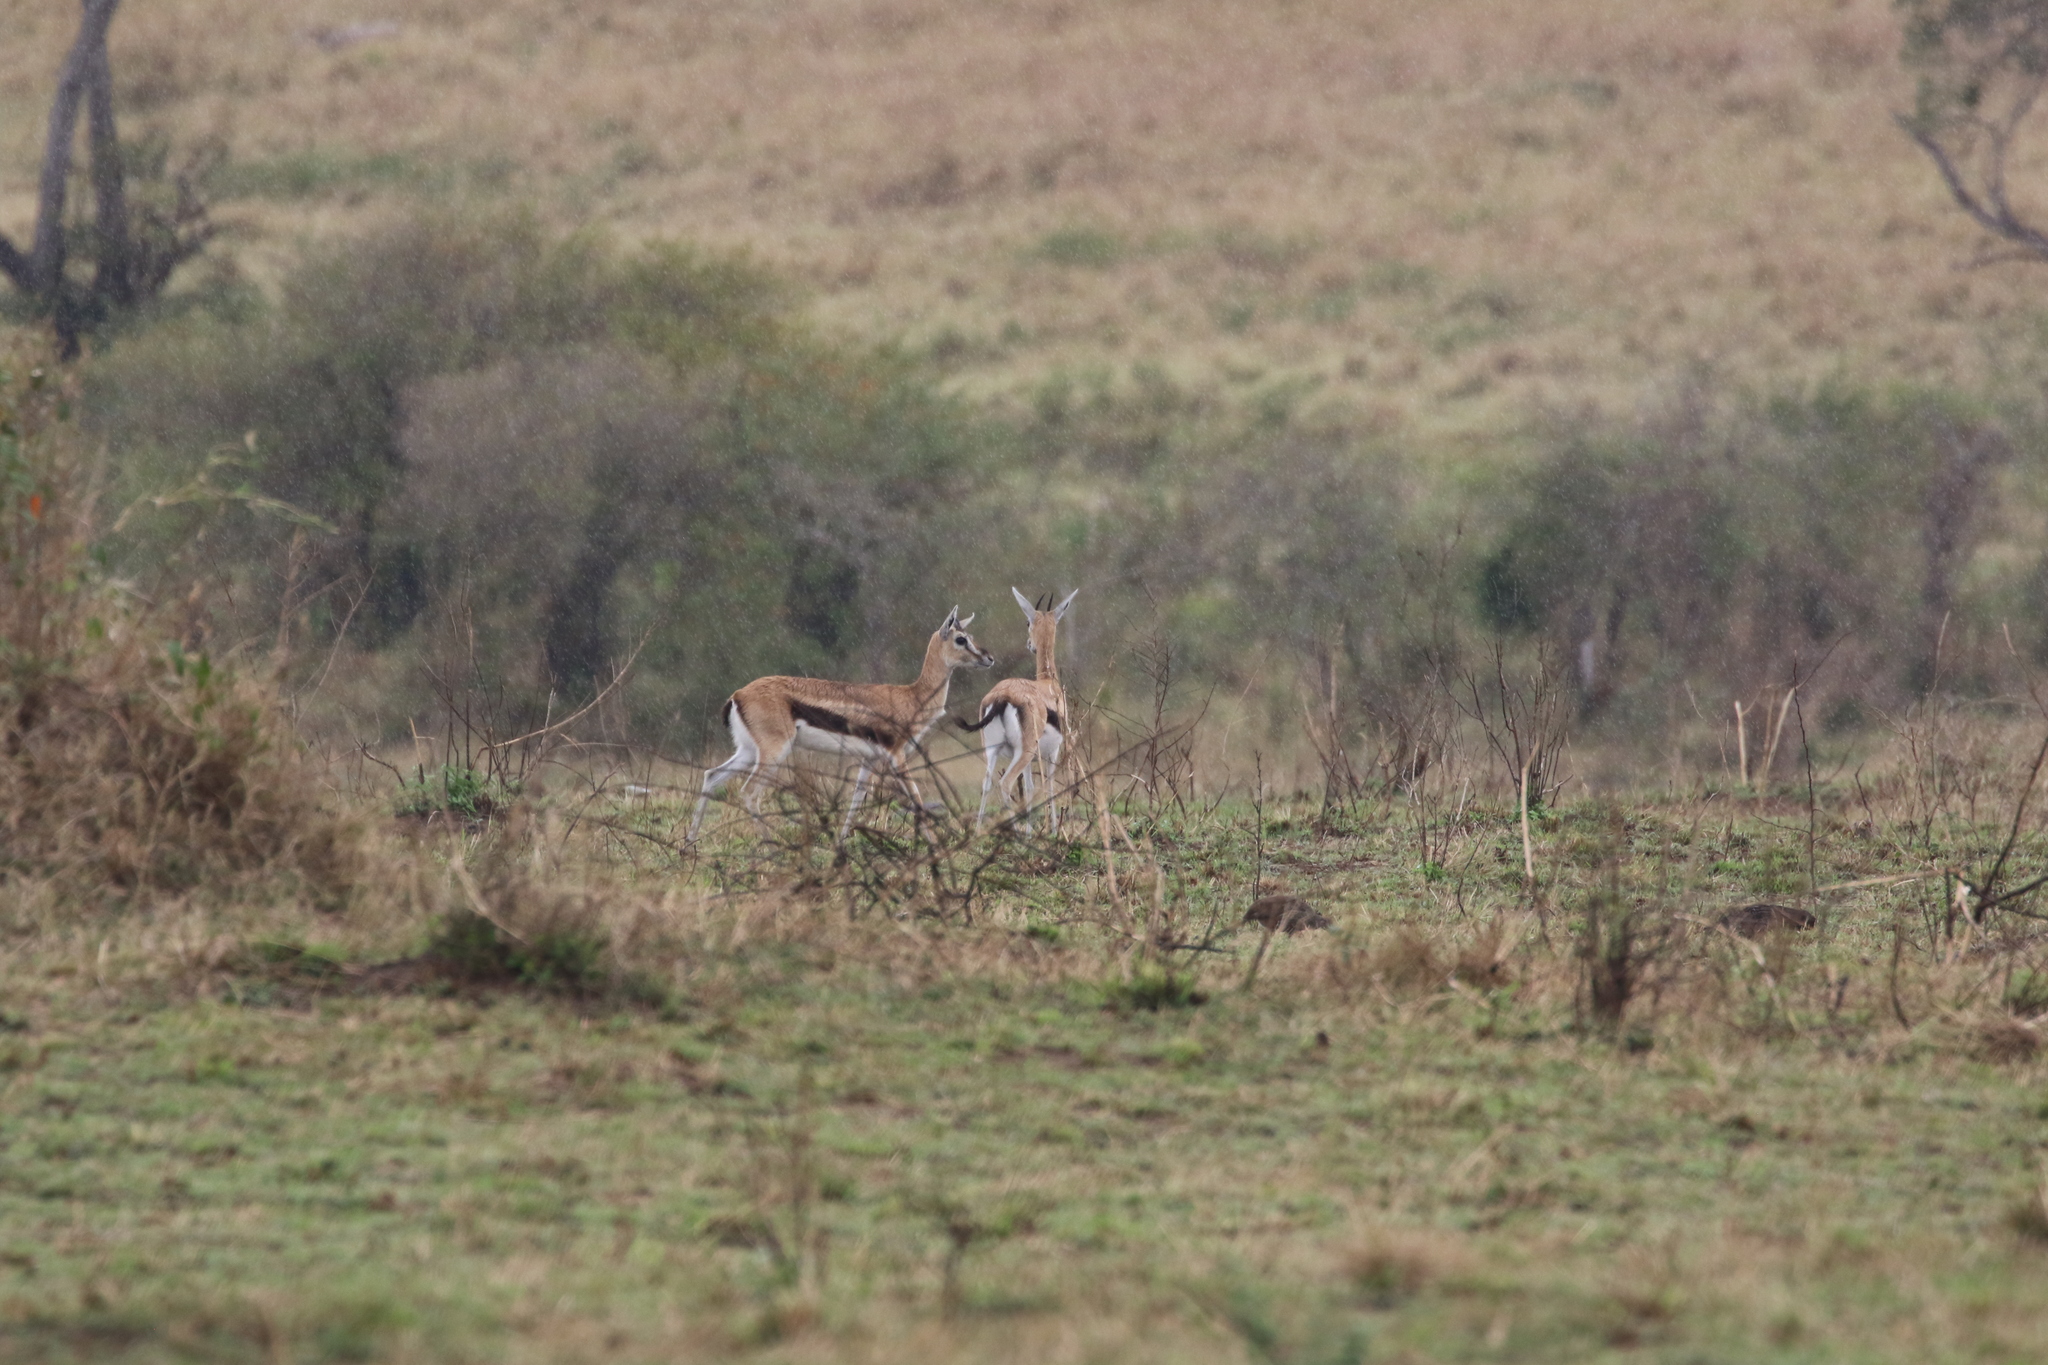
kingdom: Animalia
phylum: Chordata
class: Mammalia
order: Artiodactyla
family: Bovidae
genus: Eudorcas
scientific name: Eudorcas thomsonii
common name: Thomson's gazelle
